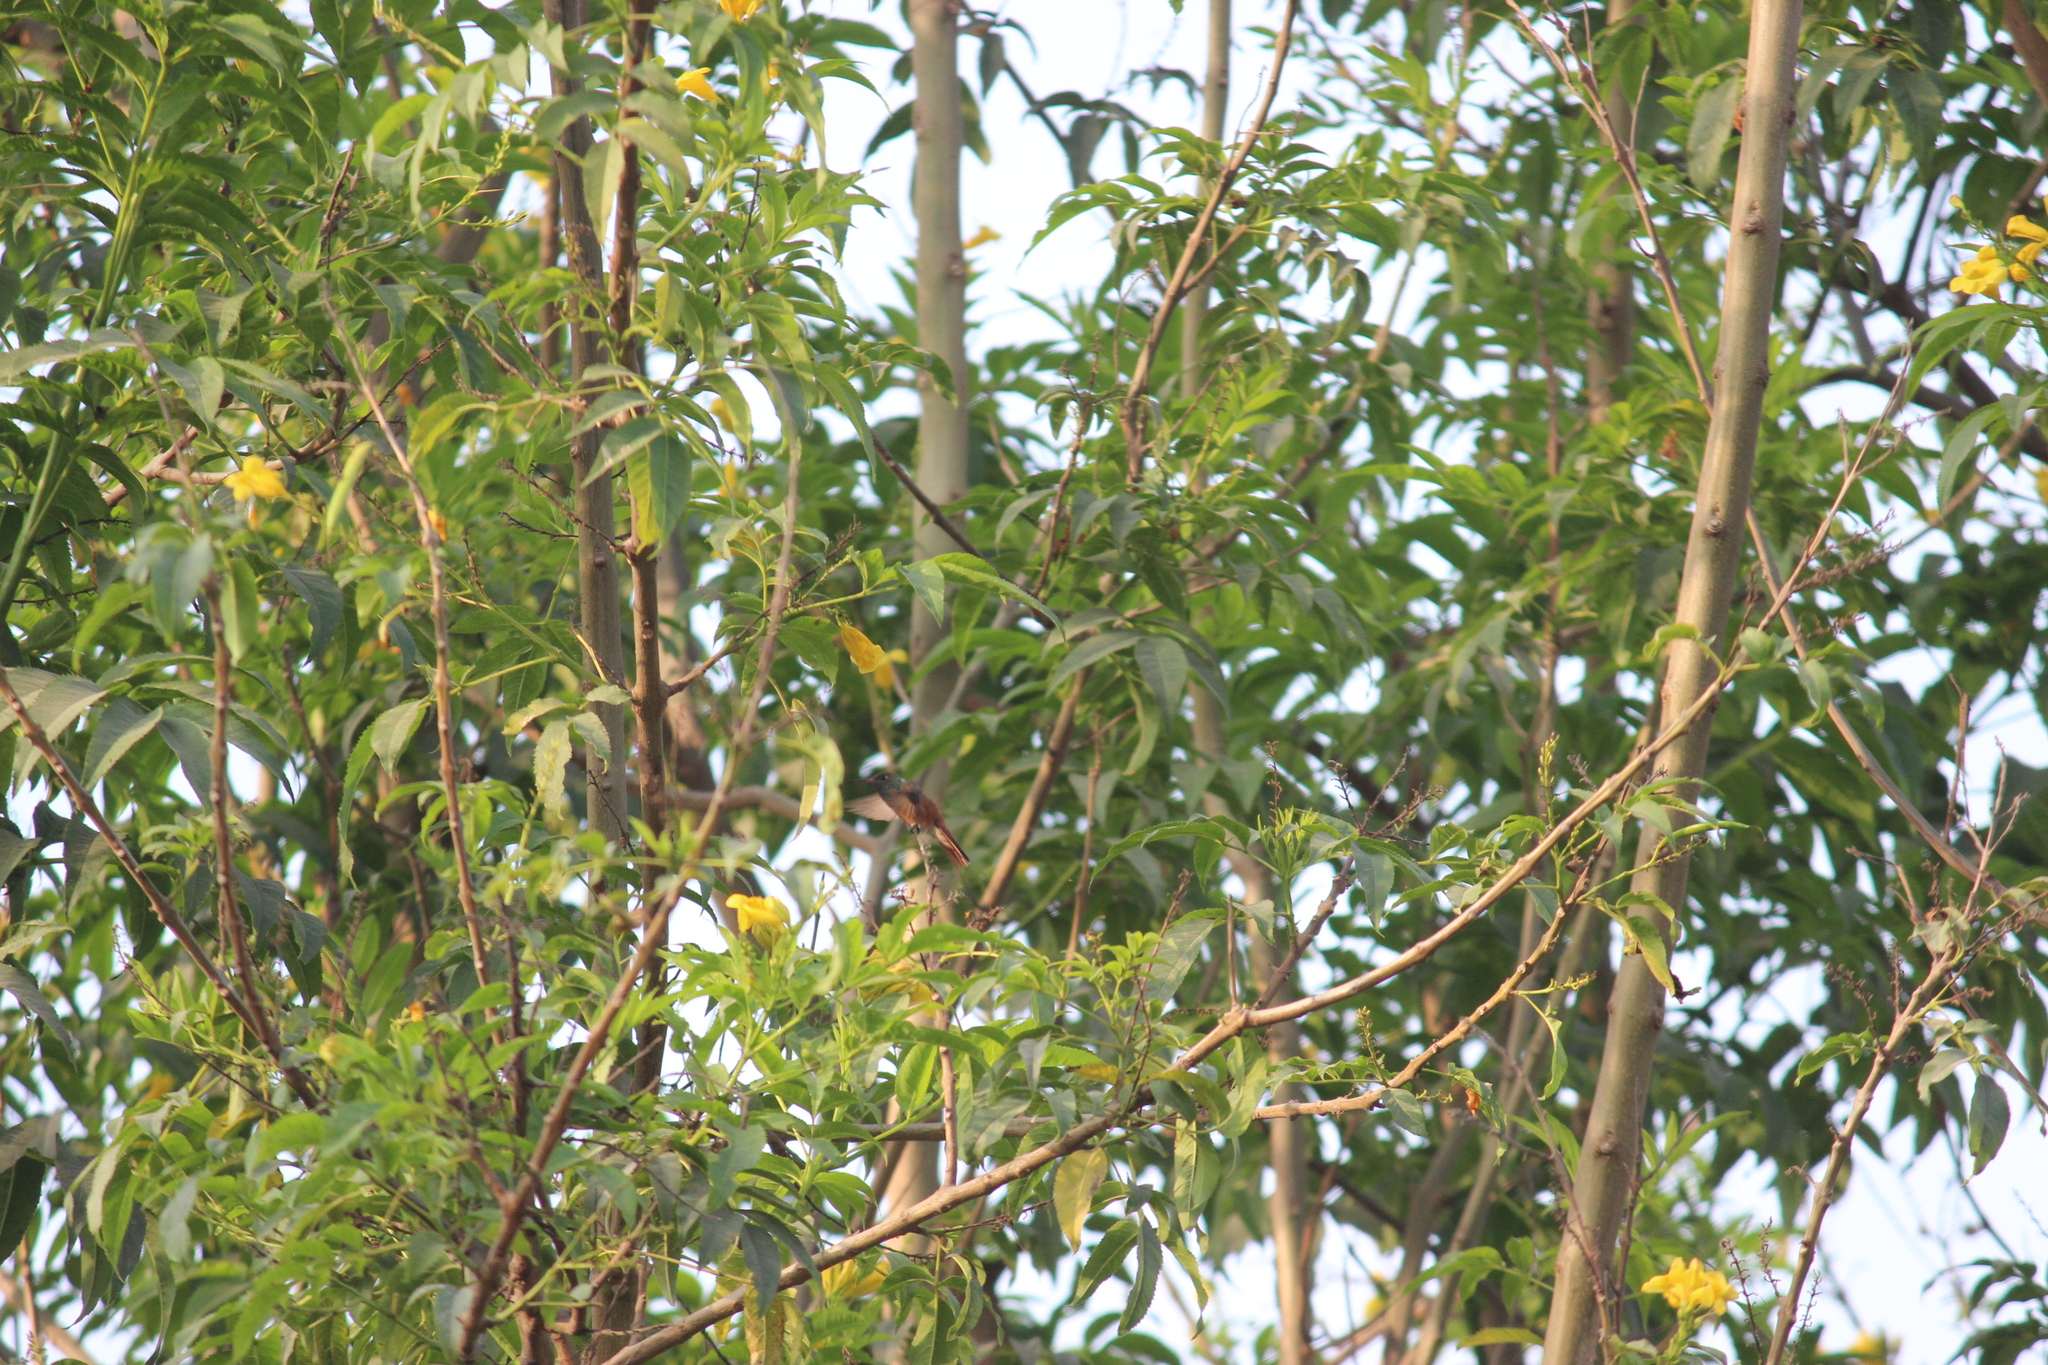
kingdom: Animalia
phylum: Chordata
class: Aves
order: Apodiformes
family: Trochilidae
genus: Amazilis
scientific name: Amazilis amazilia
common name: Amazilia hummingbird
